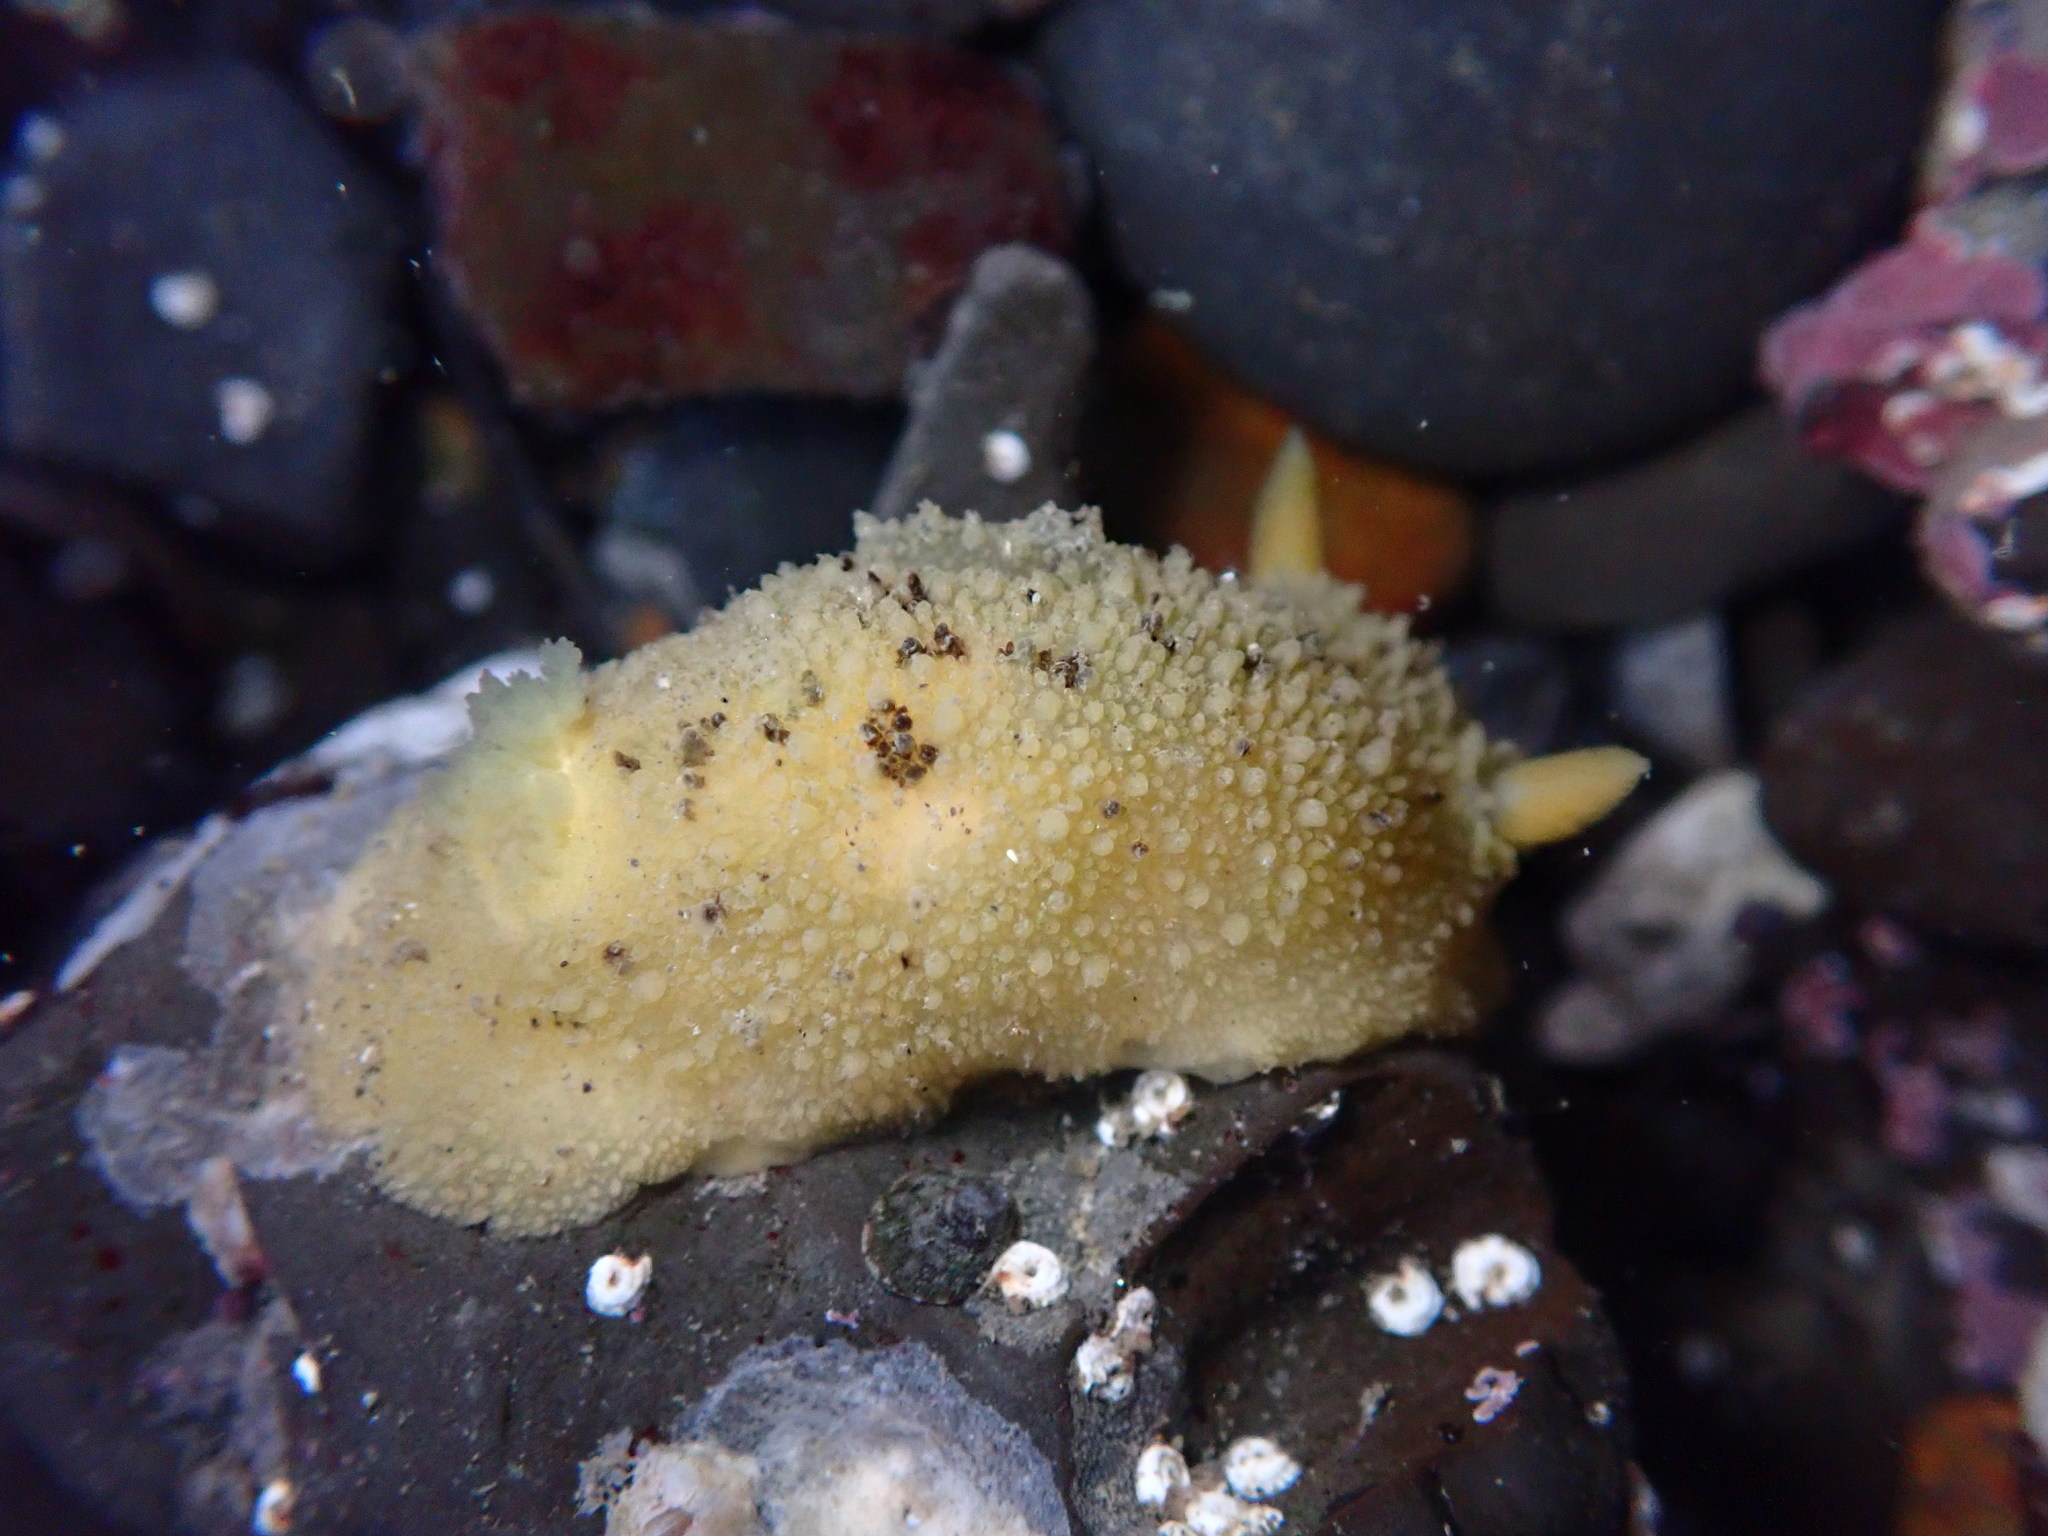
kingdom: Animalia
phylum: Mollusca
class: Gastropoda
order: Nudibranchia
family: Dorididae
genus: Doris
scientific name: Doris montereyensis
